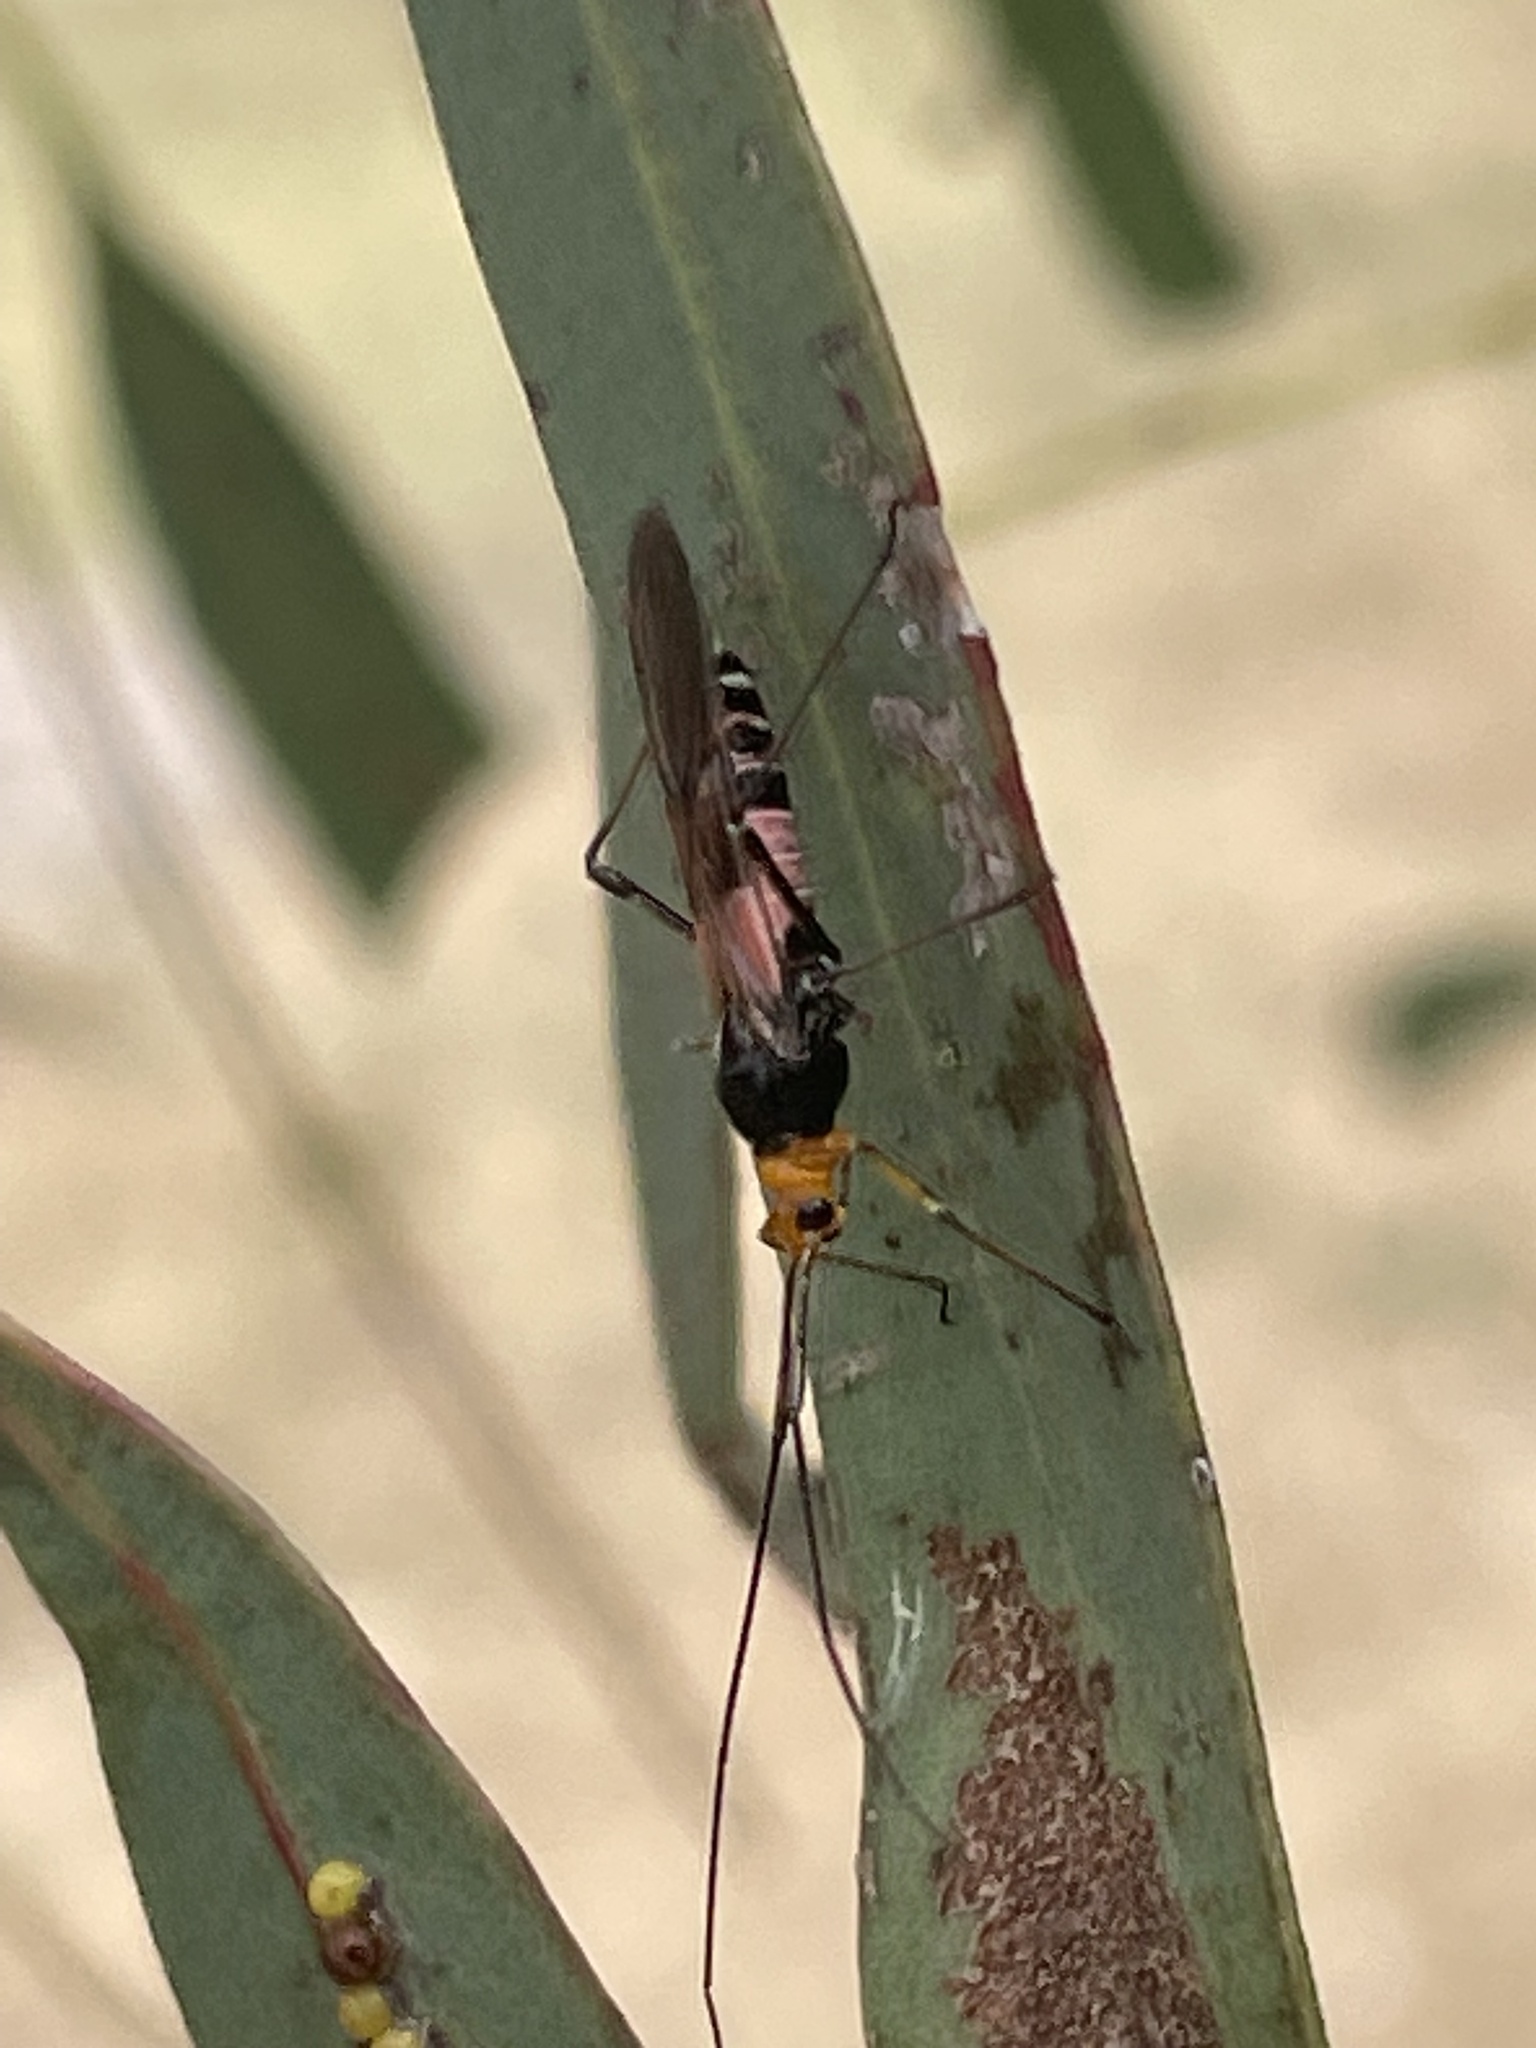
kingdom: Animalia
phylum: Arthropoda
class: Insecta
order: Hemiptera
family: Miridae
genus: Rayieria
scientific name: Rayieria basifer
